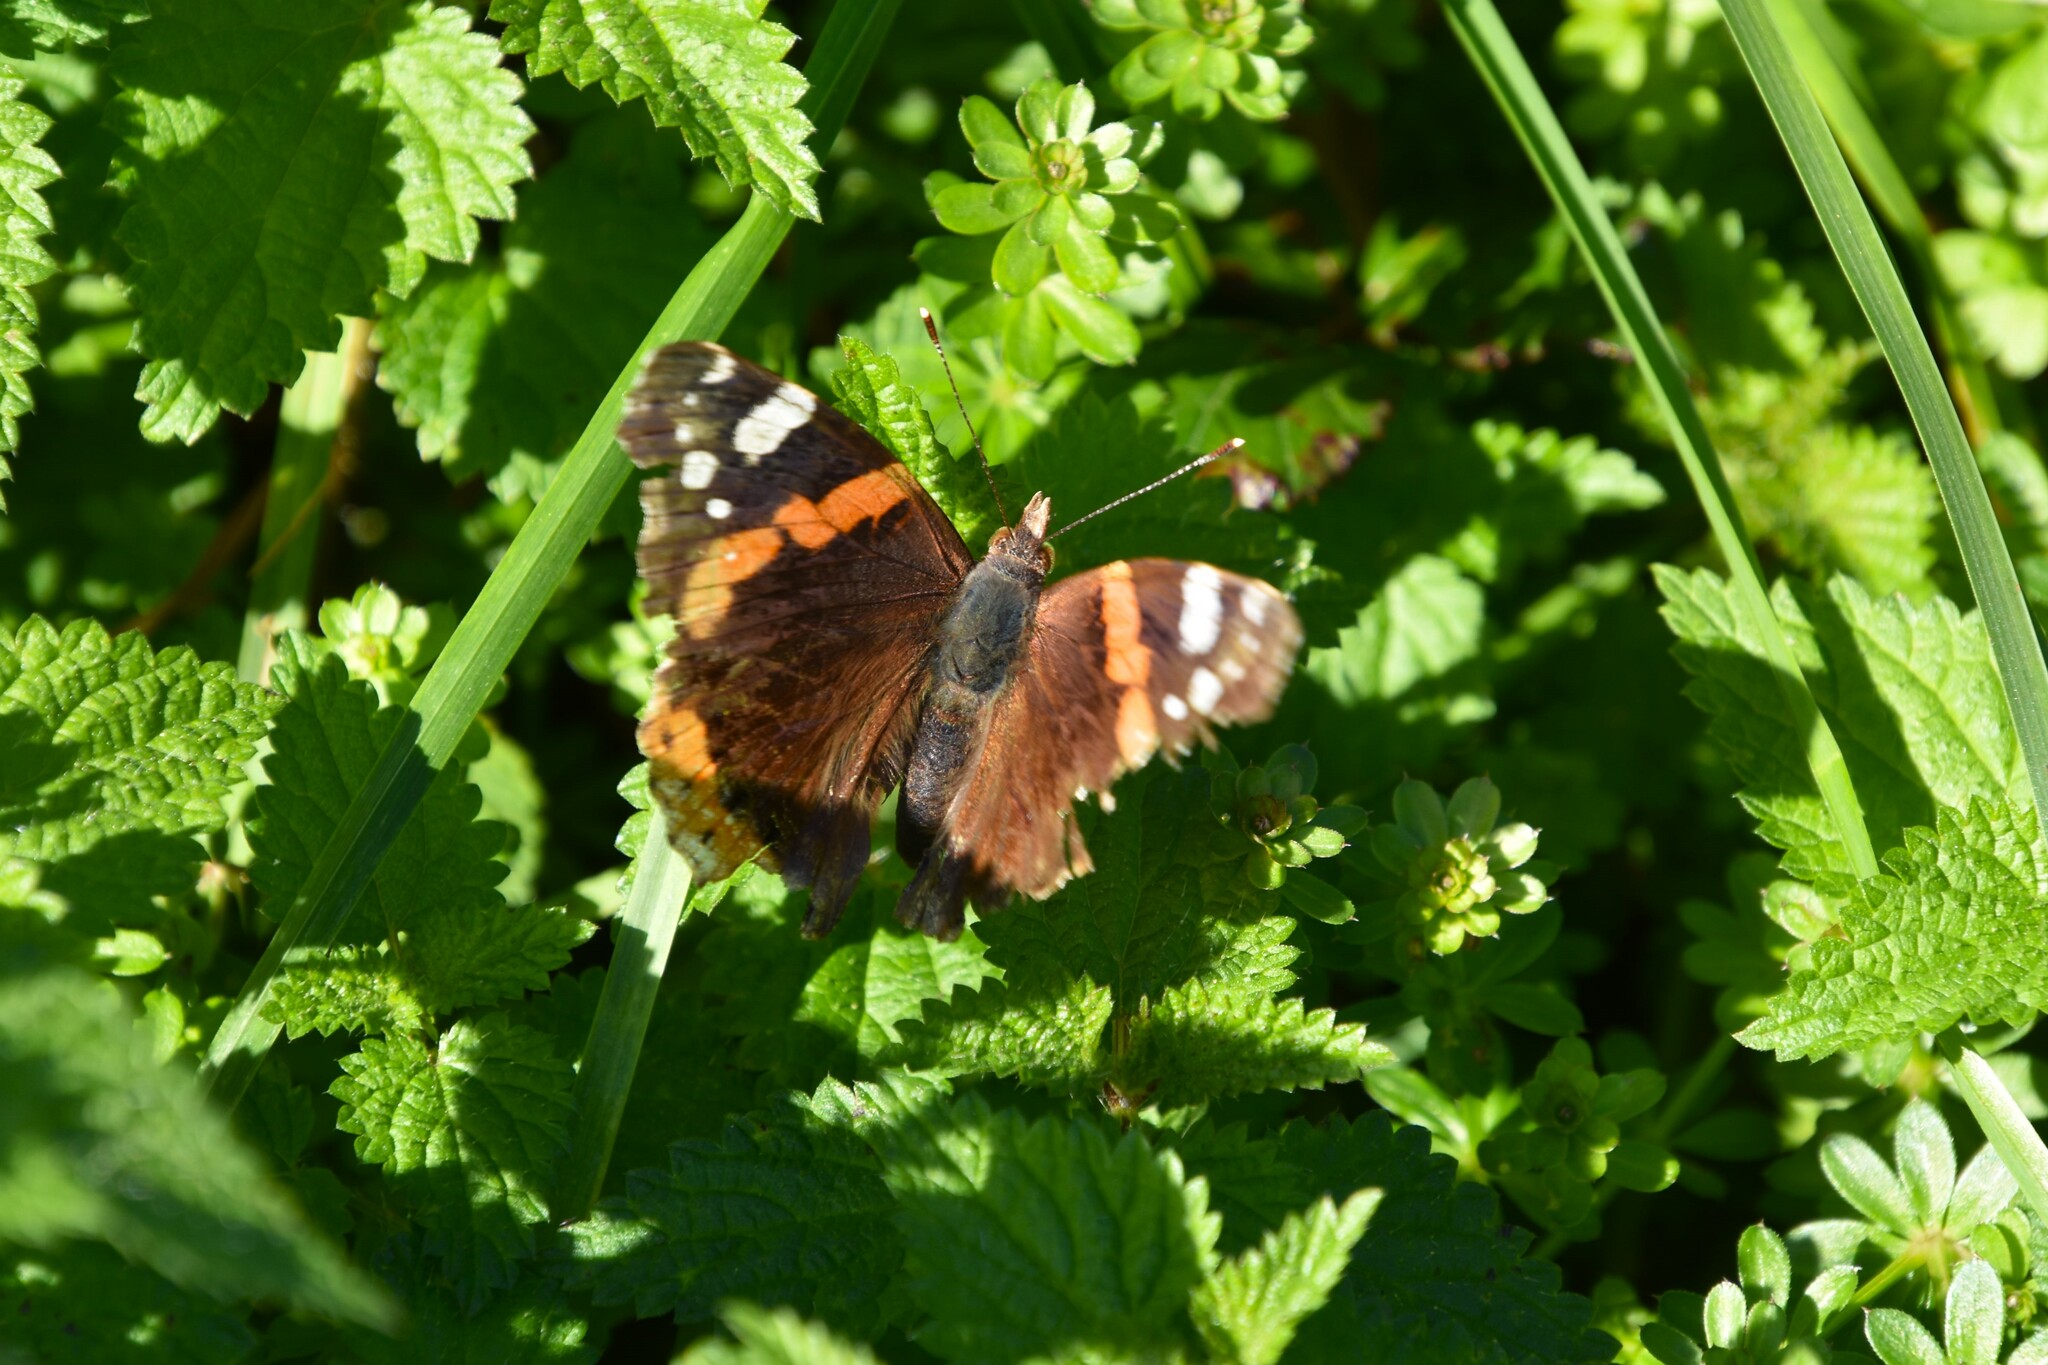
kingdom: Animalia
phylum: Arthropoda
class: Insecta
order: Lepidoptera
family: Nymphalidae
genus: Vanessa
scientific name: Vanessa atalanta
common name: Red admiral
